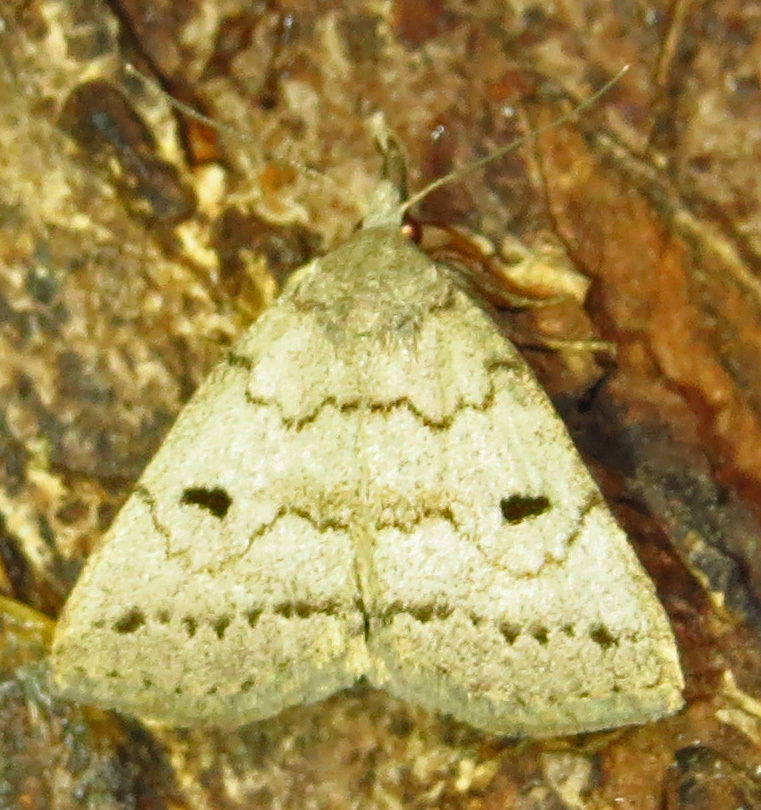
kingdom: Animalia
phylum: Arthropoda
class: Insecta
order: Lepidoptera
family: Erebidae
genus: Macrochilo
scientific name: Macrochilo morbidalis
